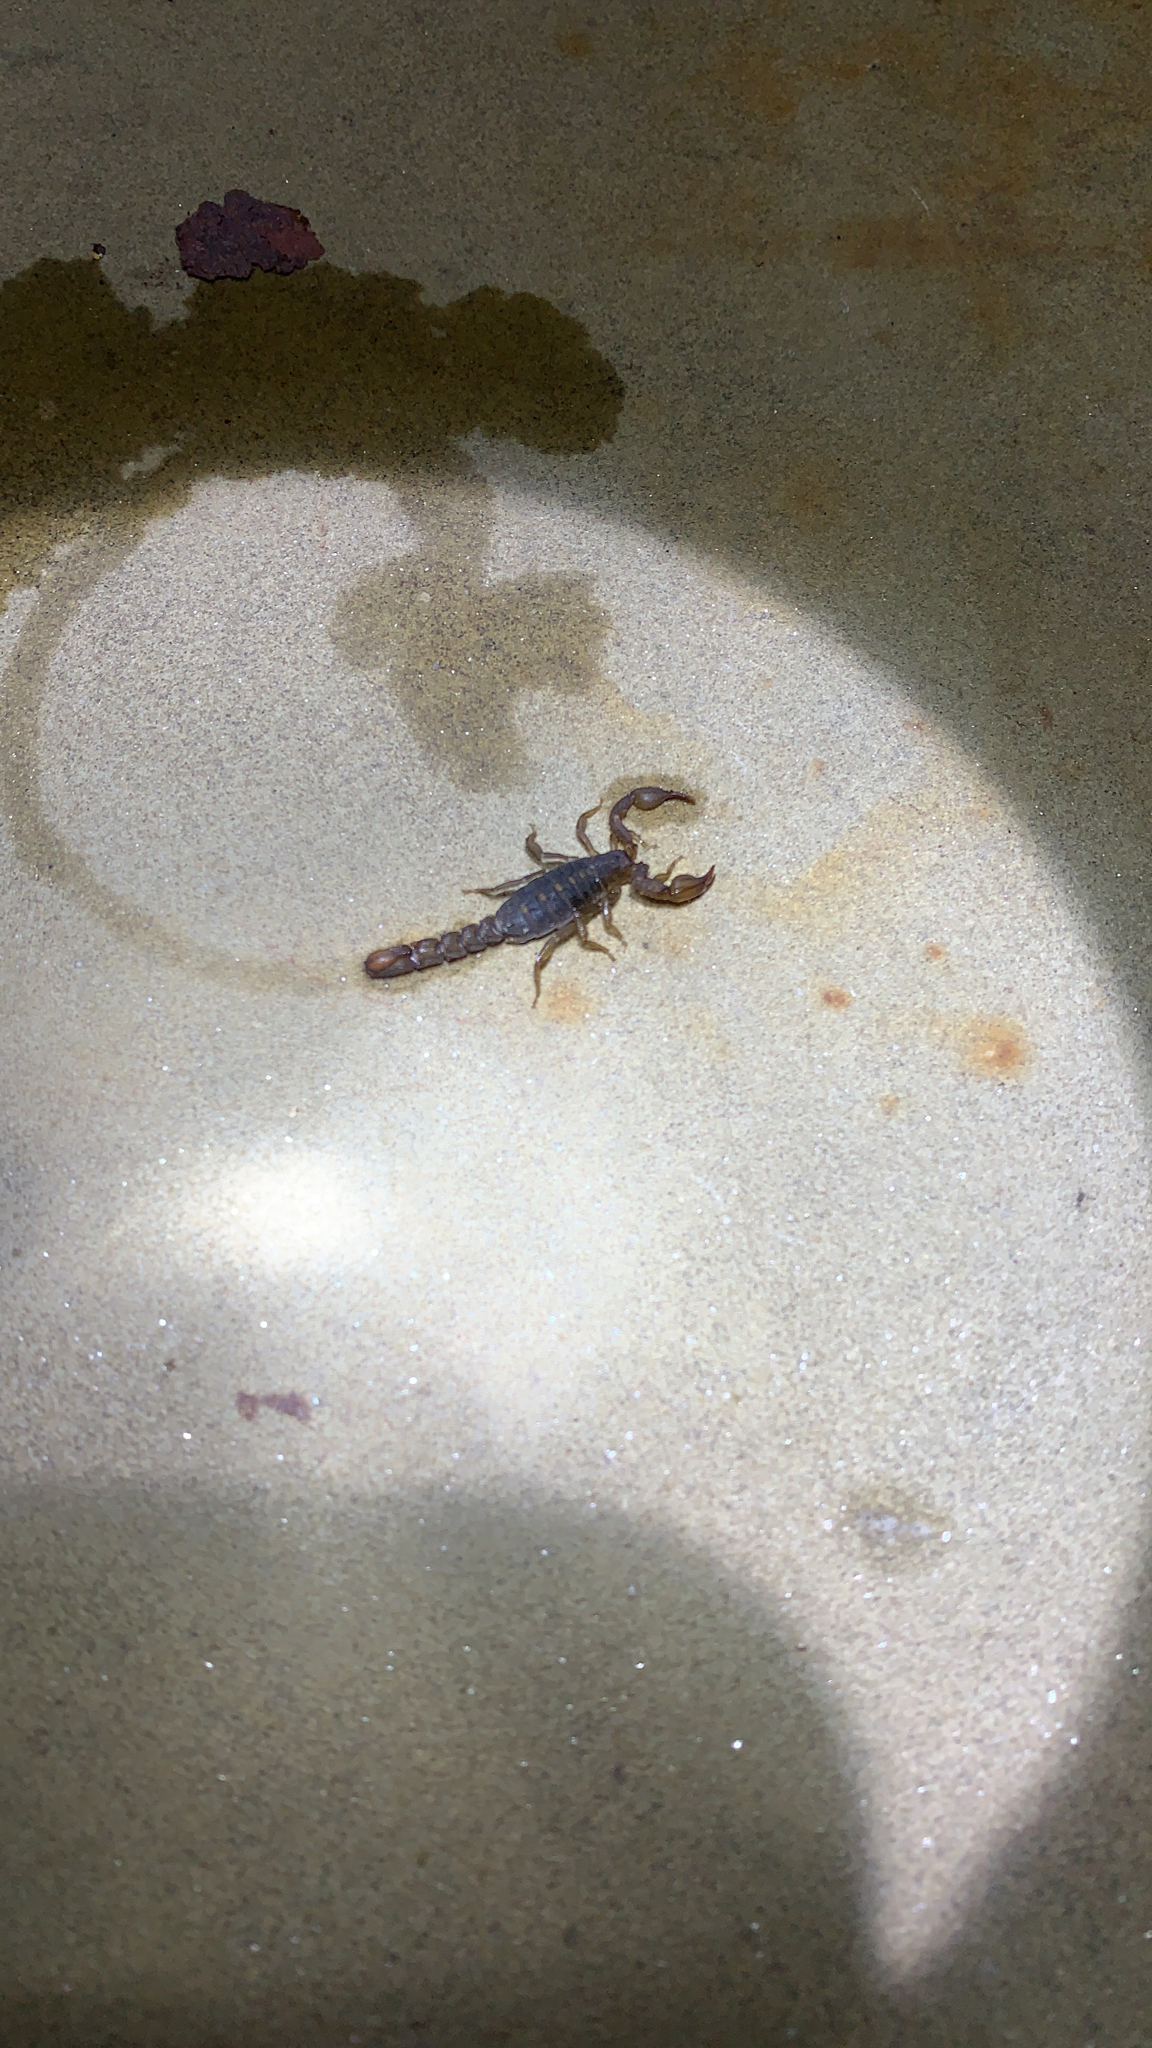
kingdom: Animalia
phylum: Arthropoda
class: Arachnida
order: Scorpiones
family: Vaejovidae
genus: Catalinia
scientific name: Catalinia thompsoni
